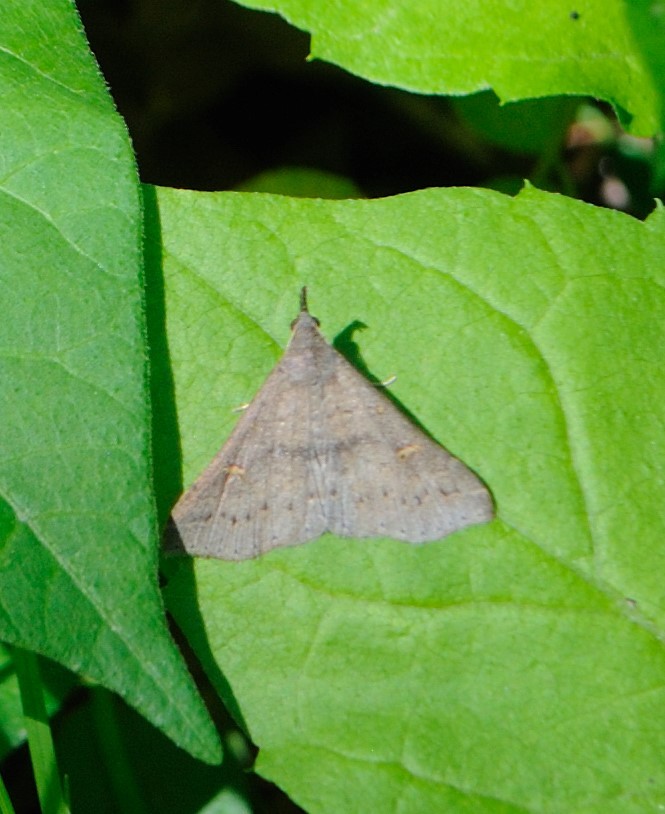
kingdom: Animalia
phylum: Arthropoda
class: Insecta
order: Lepidoptera
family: Erebidae
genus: Renia
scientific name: Renia adspergillus
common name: Speckled renia moth
